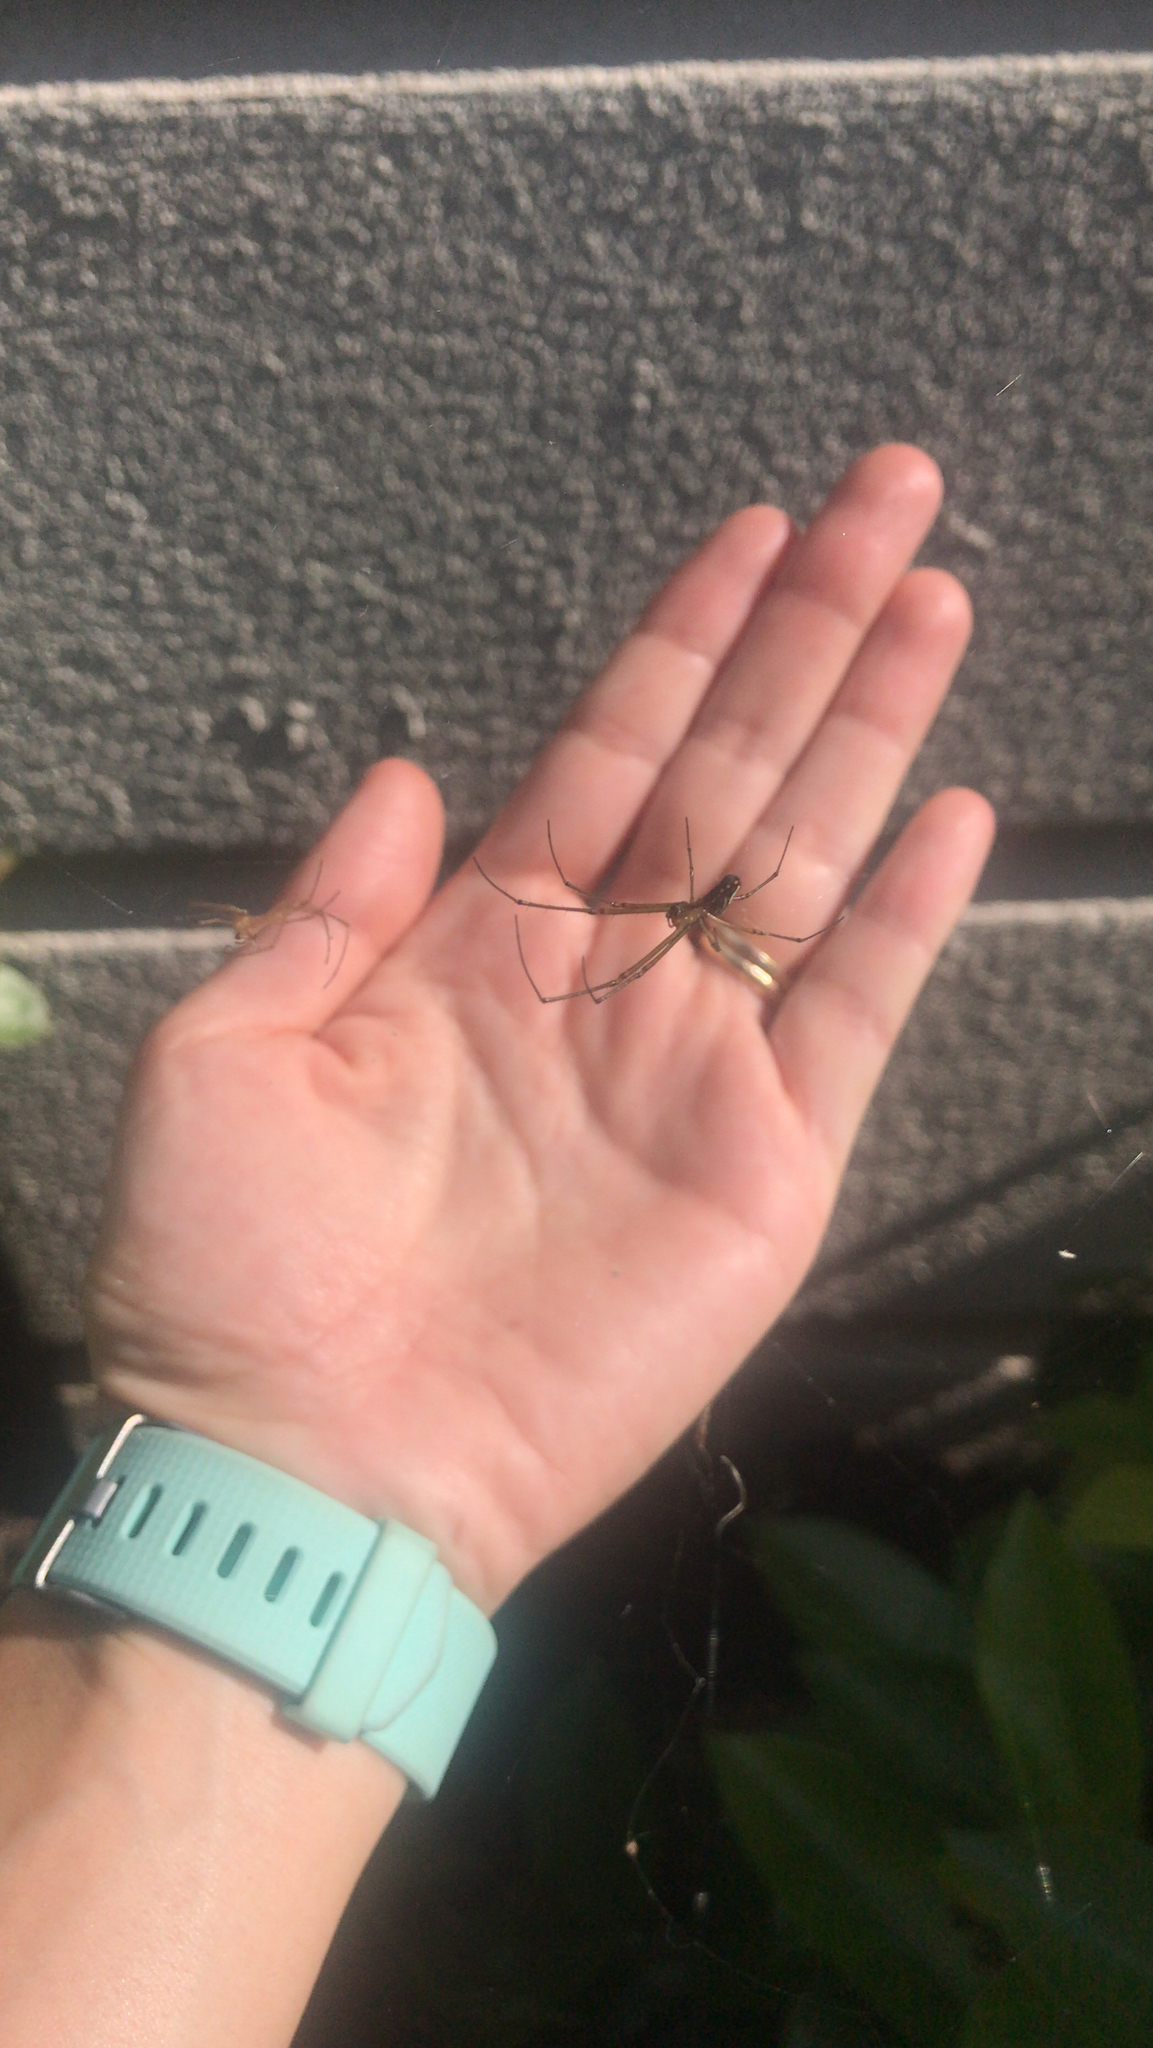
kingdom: Animalia
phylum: Arthropoda
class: Arachnida
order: Araneae
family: Tetragnathidae
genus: Leucauge
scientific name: Leucauge argyra
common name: Longjawed orb weavers
